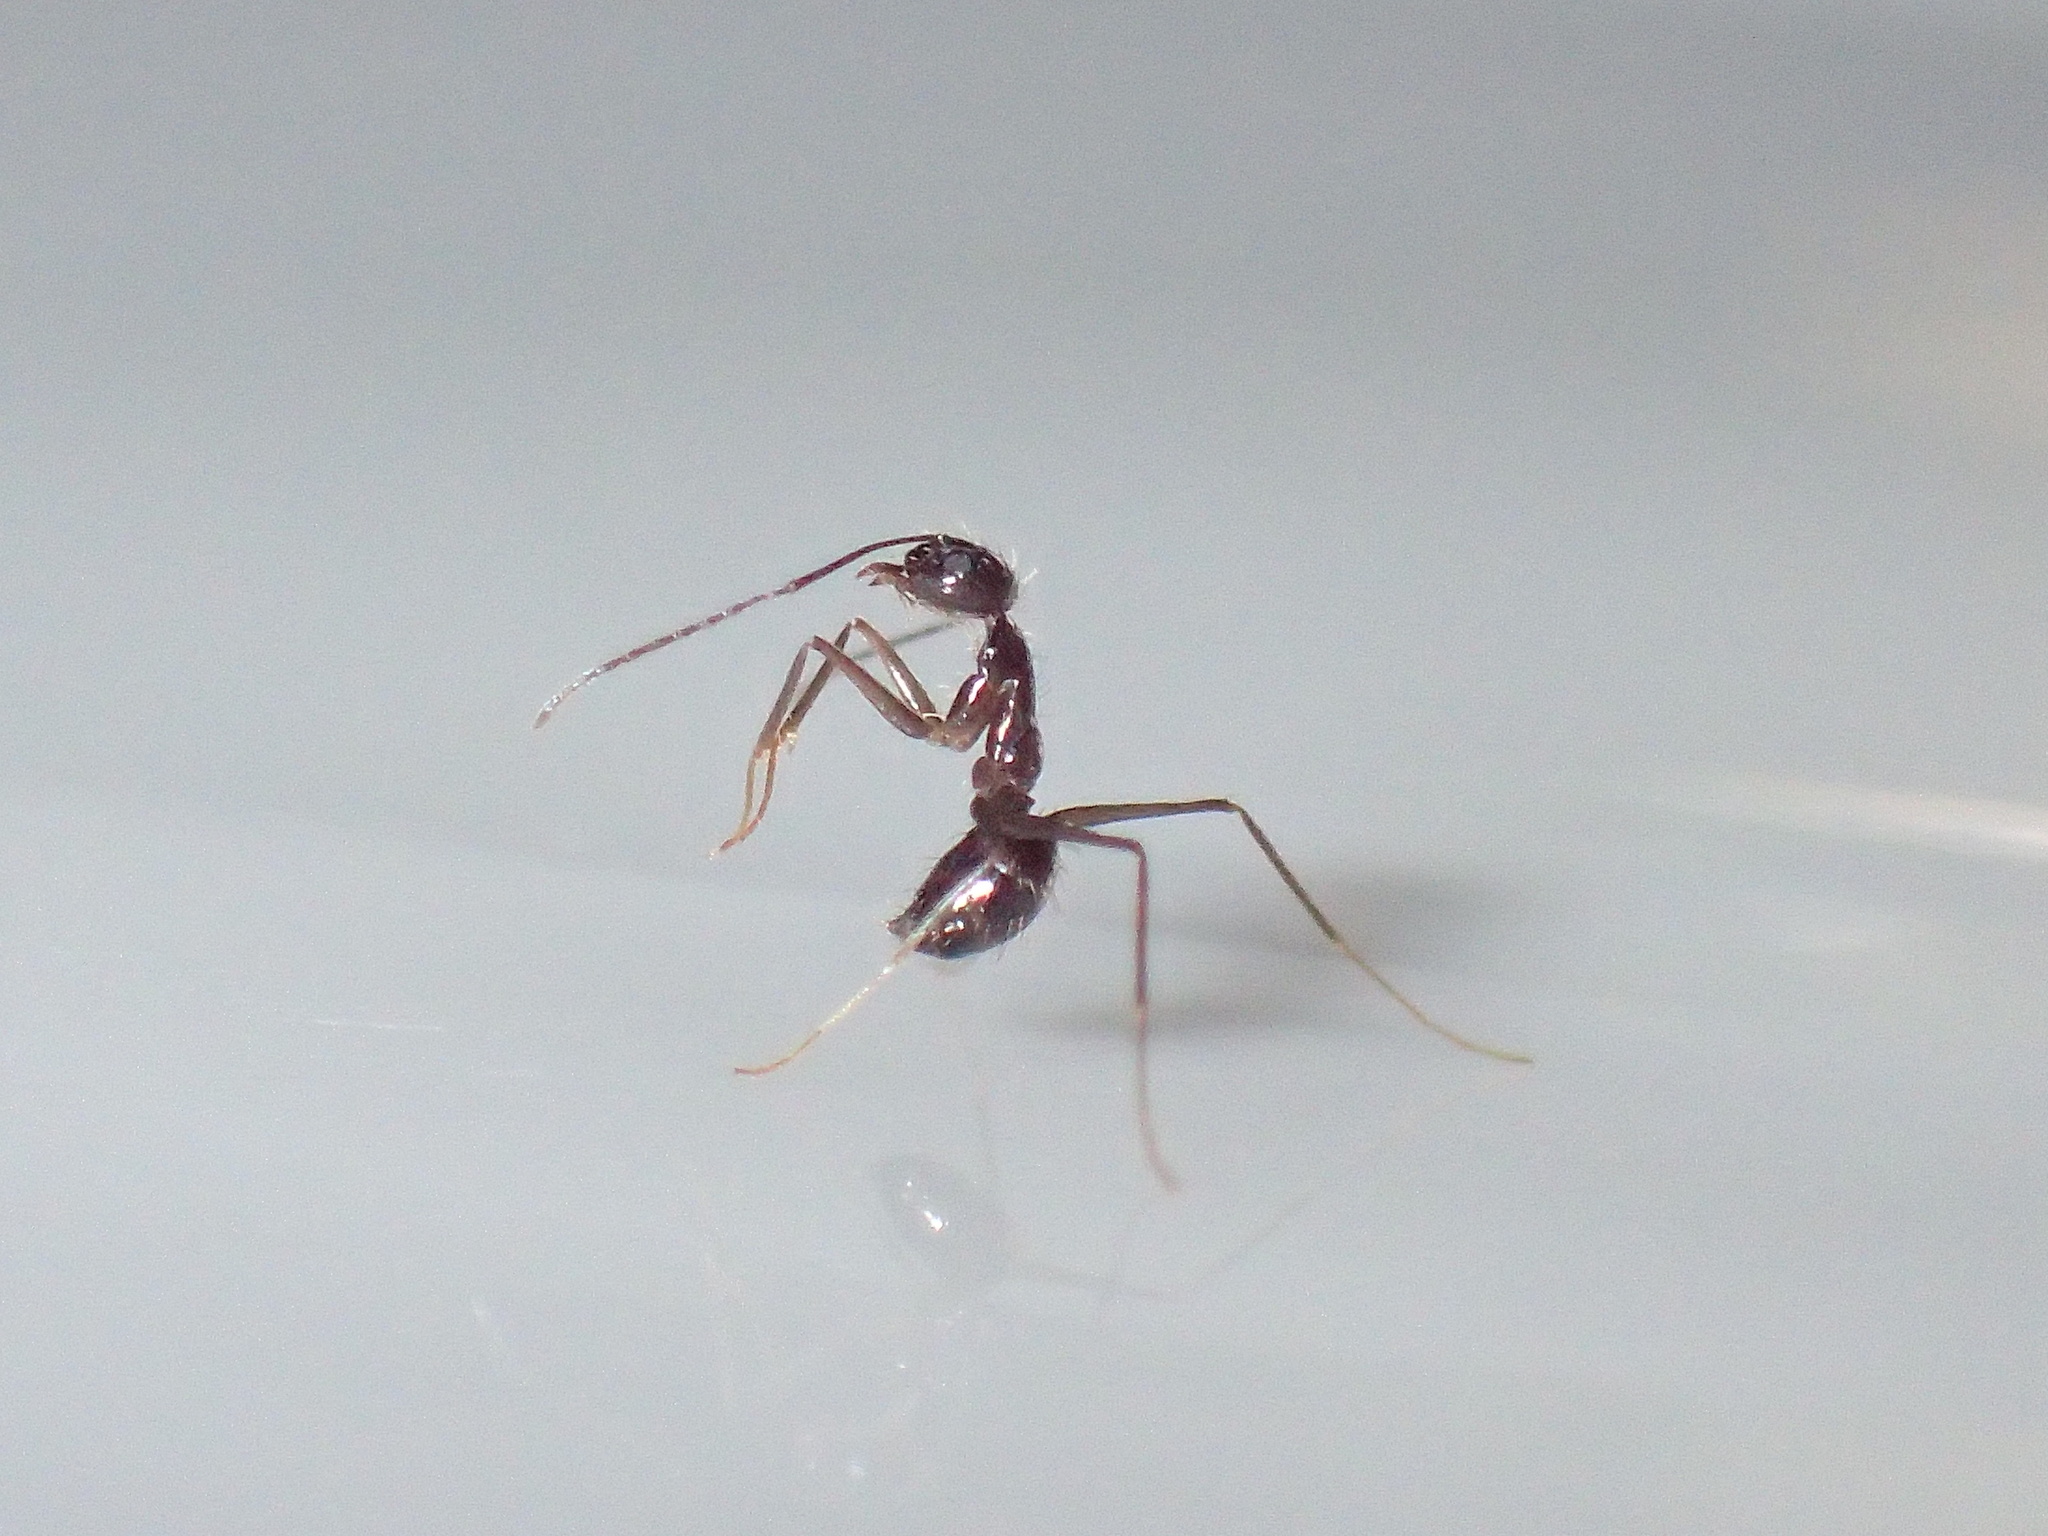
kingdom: Animalia
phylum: Arthropoda
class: Insecta
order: Hymenoptera
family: Formicidae
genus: Paratrechina
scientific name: Paratrechina longicornis
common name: Longhorned crazy ant
